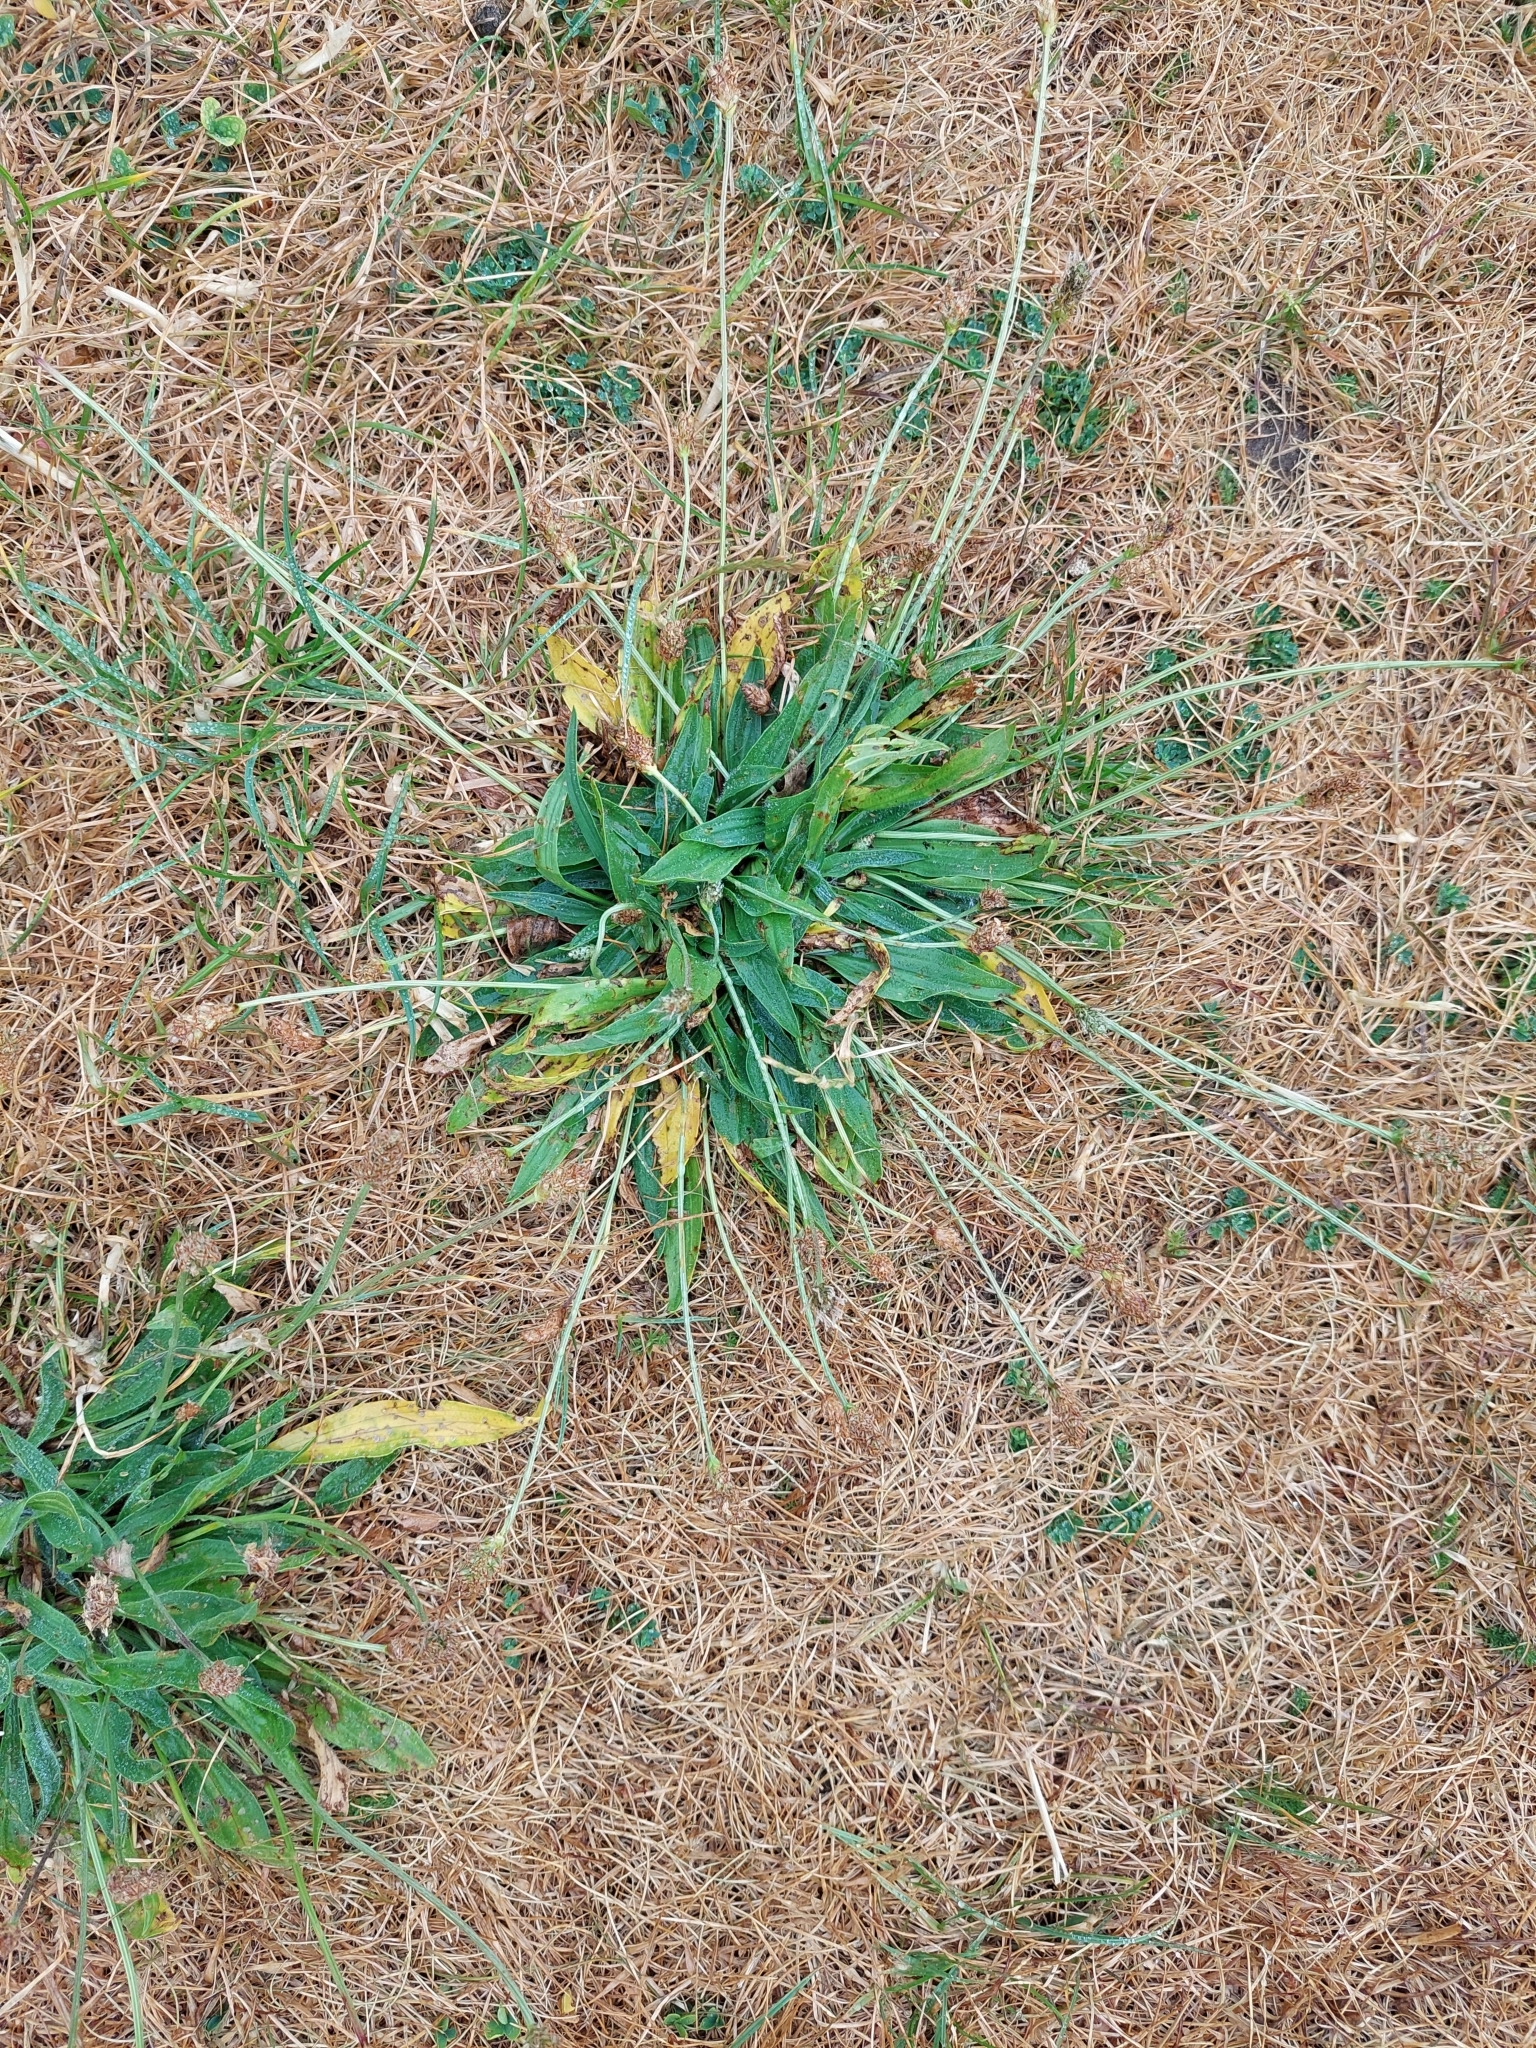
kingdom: Plantae
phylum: Tracheophyta
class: Magnoliopsida
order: Lamiales
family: Plantaginaceae
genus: Plantago
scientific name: Plantago lanceolata
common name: Ribwort plantain
